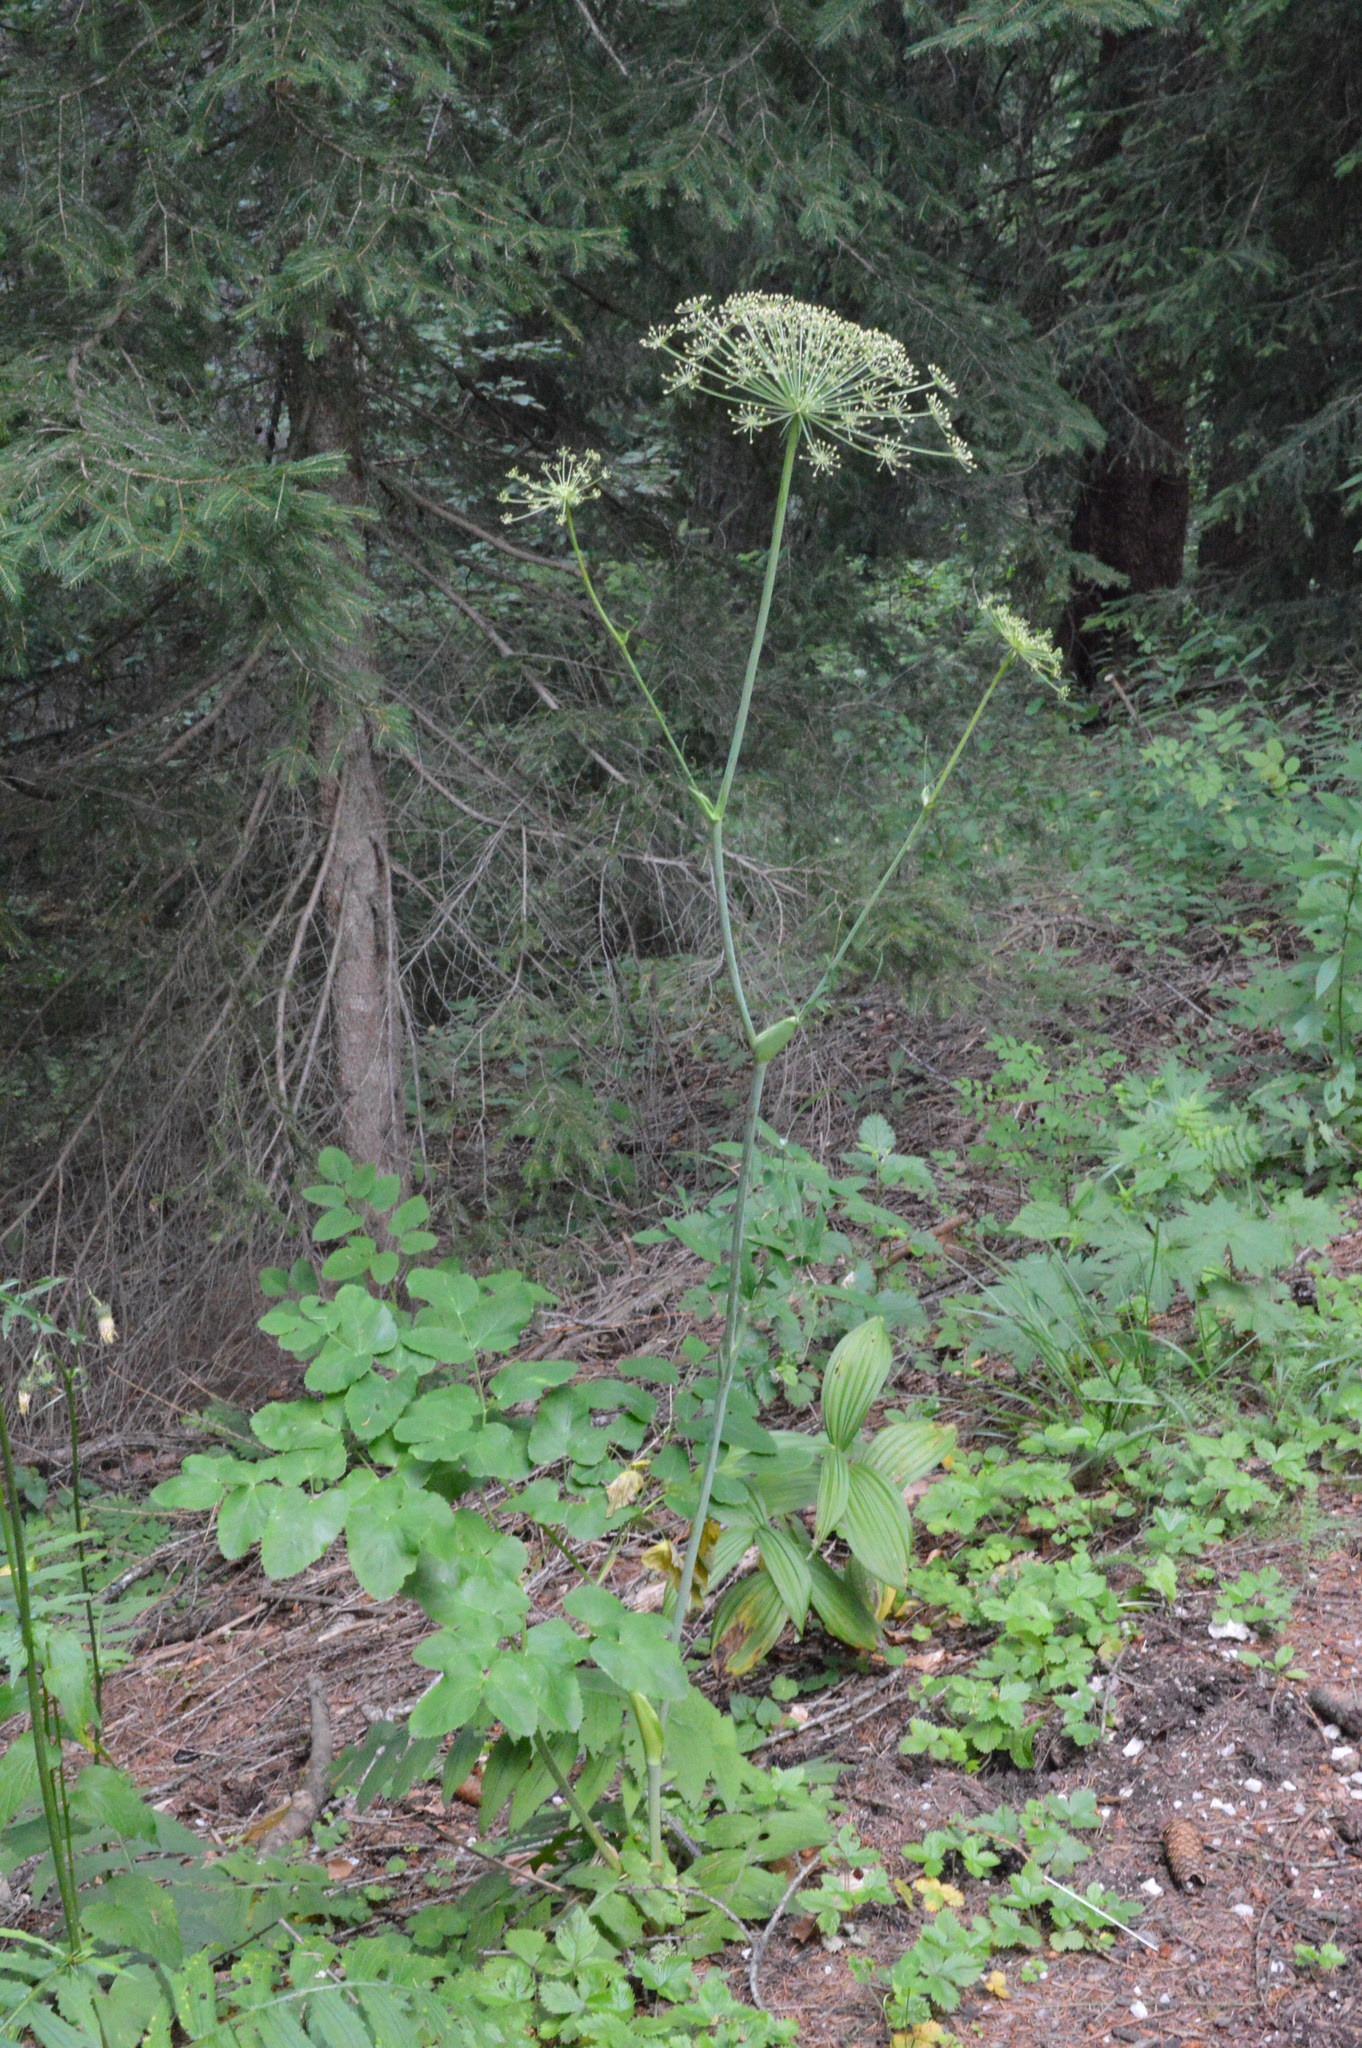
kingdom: Plantae
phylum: Tracheophyta
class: Magnoliopsida
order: Apiales
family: Apiaceae
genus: Laserpitium
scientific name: Laserpitium latifolium
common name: Broadleaf sermountain
